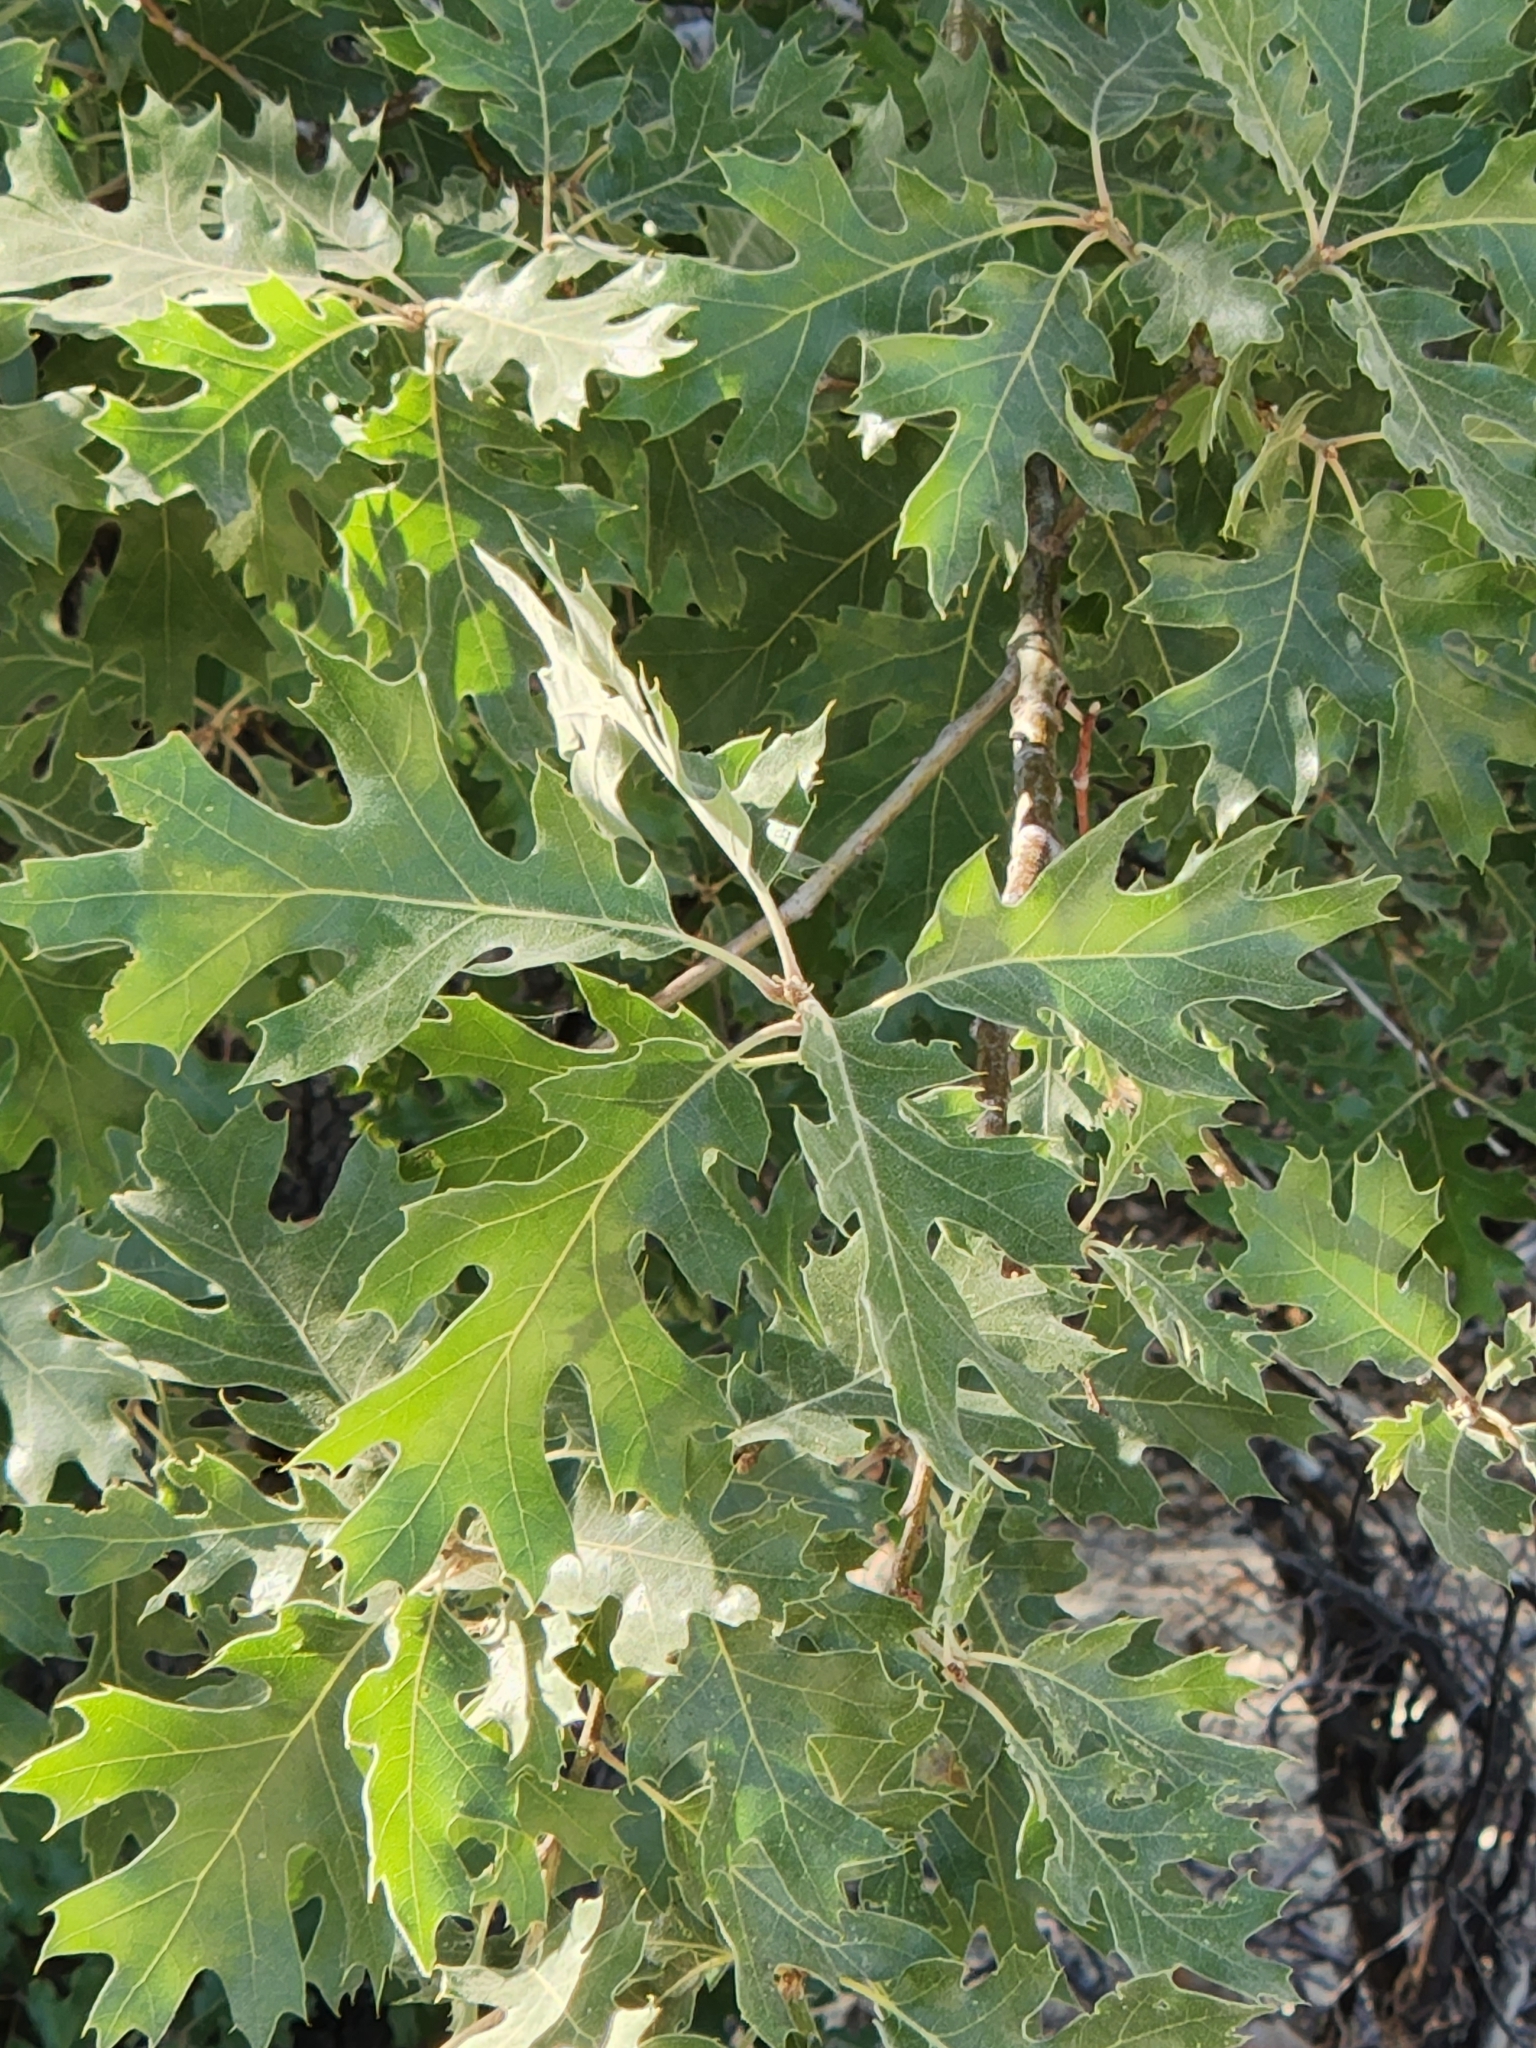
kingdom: Plantae
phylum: Tracheophyta
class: Magnoliopsida
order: Fagales
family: Fagaceae
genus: Quercus
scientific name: Quercus kelloggii
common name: California black oak
